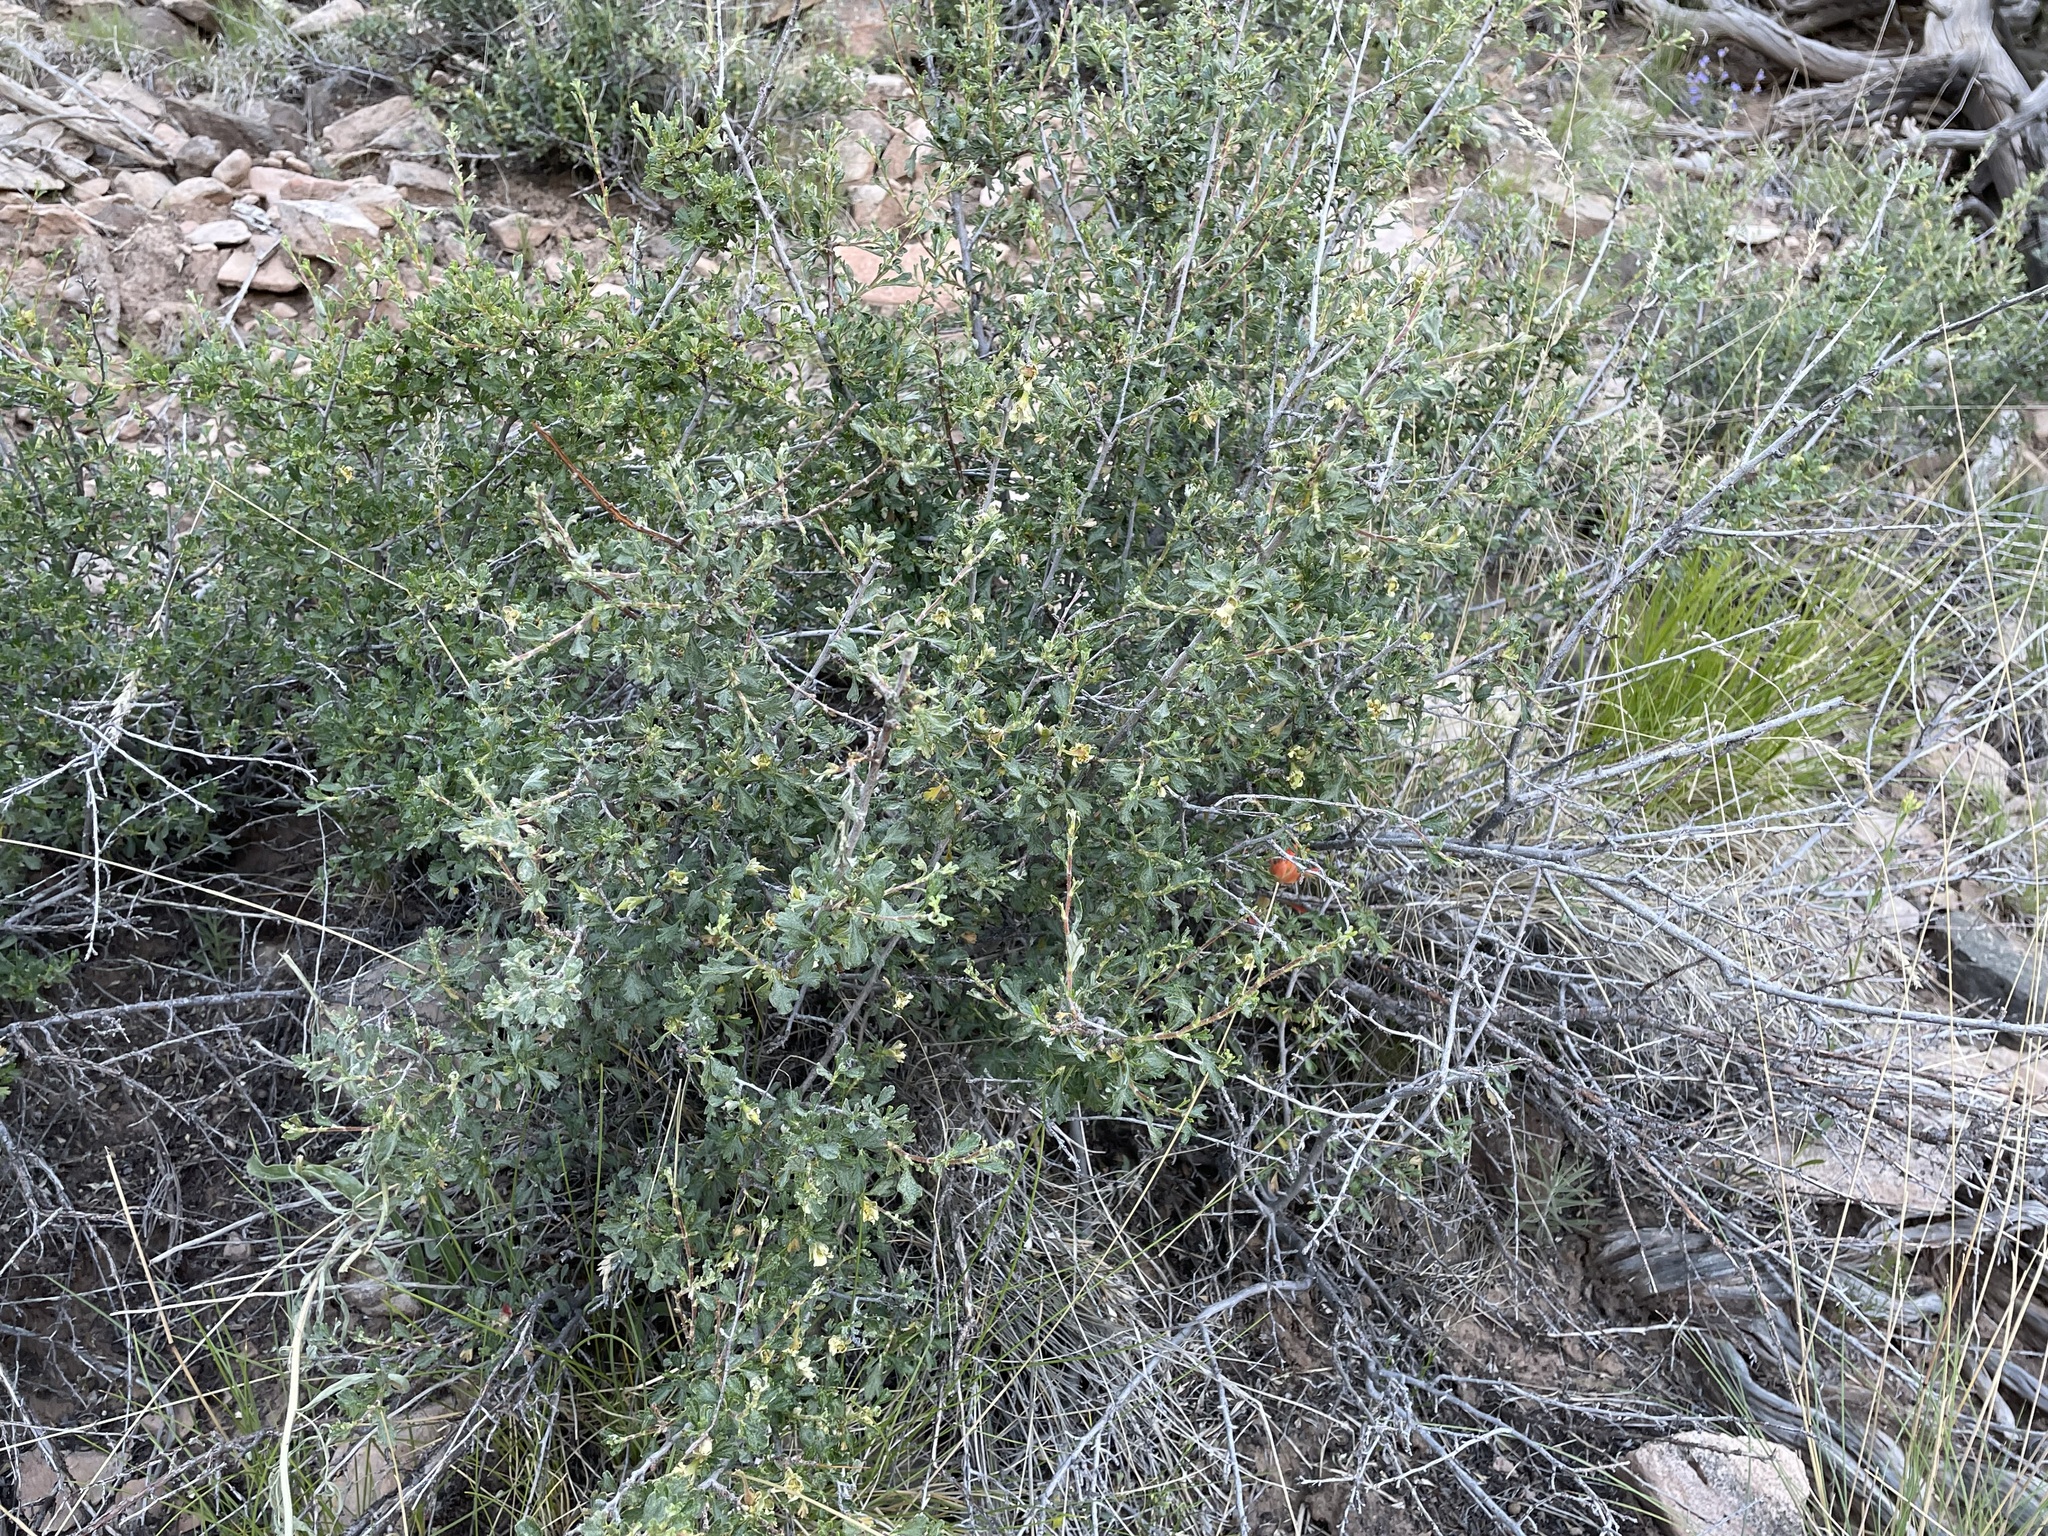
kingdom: Plantae
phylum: Tracheophyta
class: Magnoliopsida
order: Rosales
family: Rosaceae
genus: Purshia
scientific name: Purshia tridentata
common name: Antelope bitterbrush
